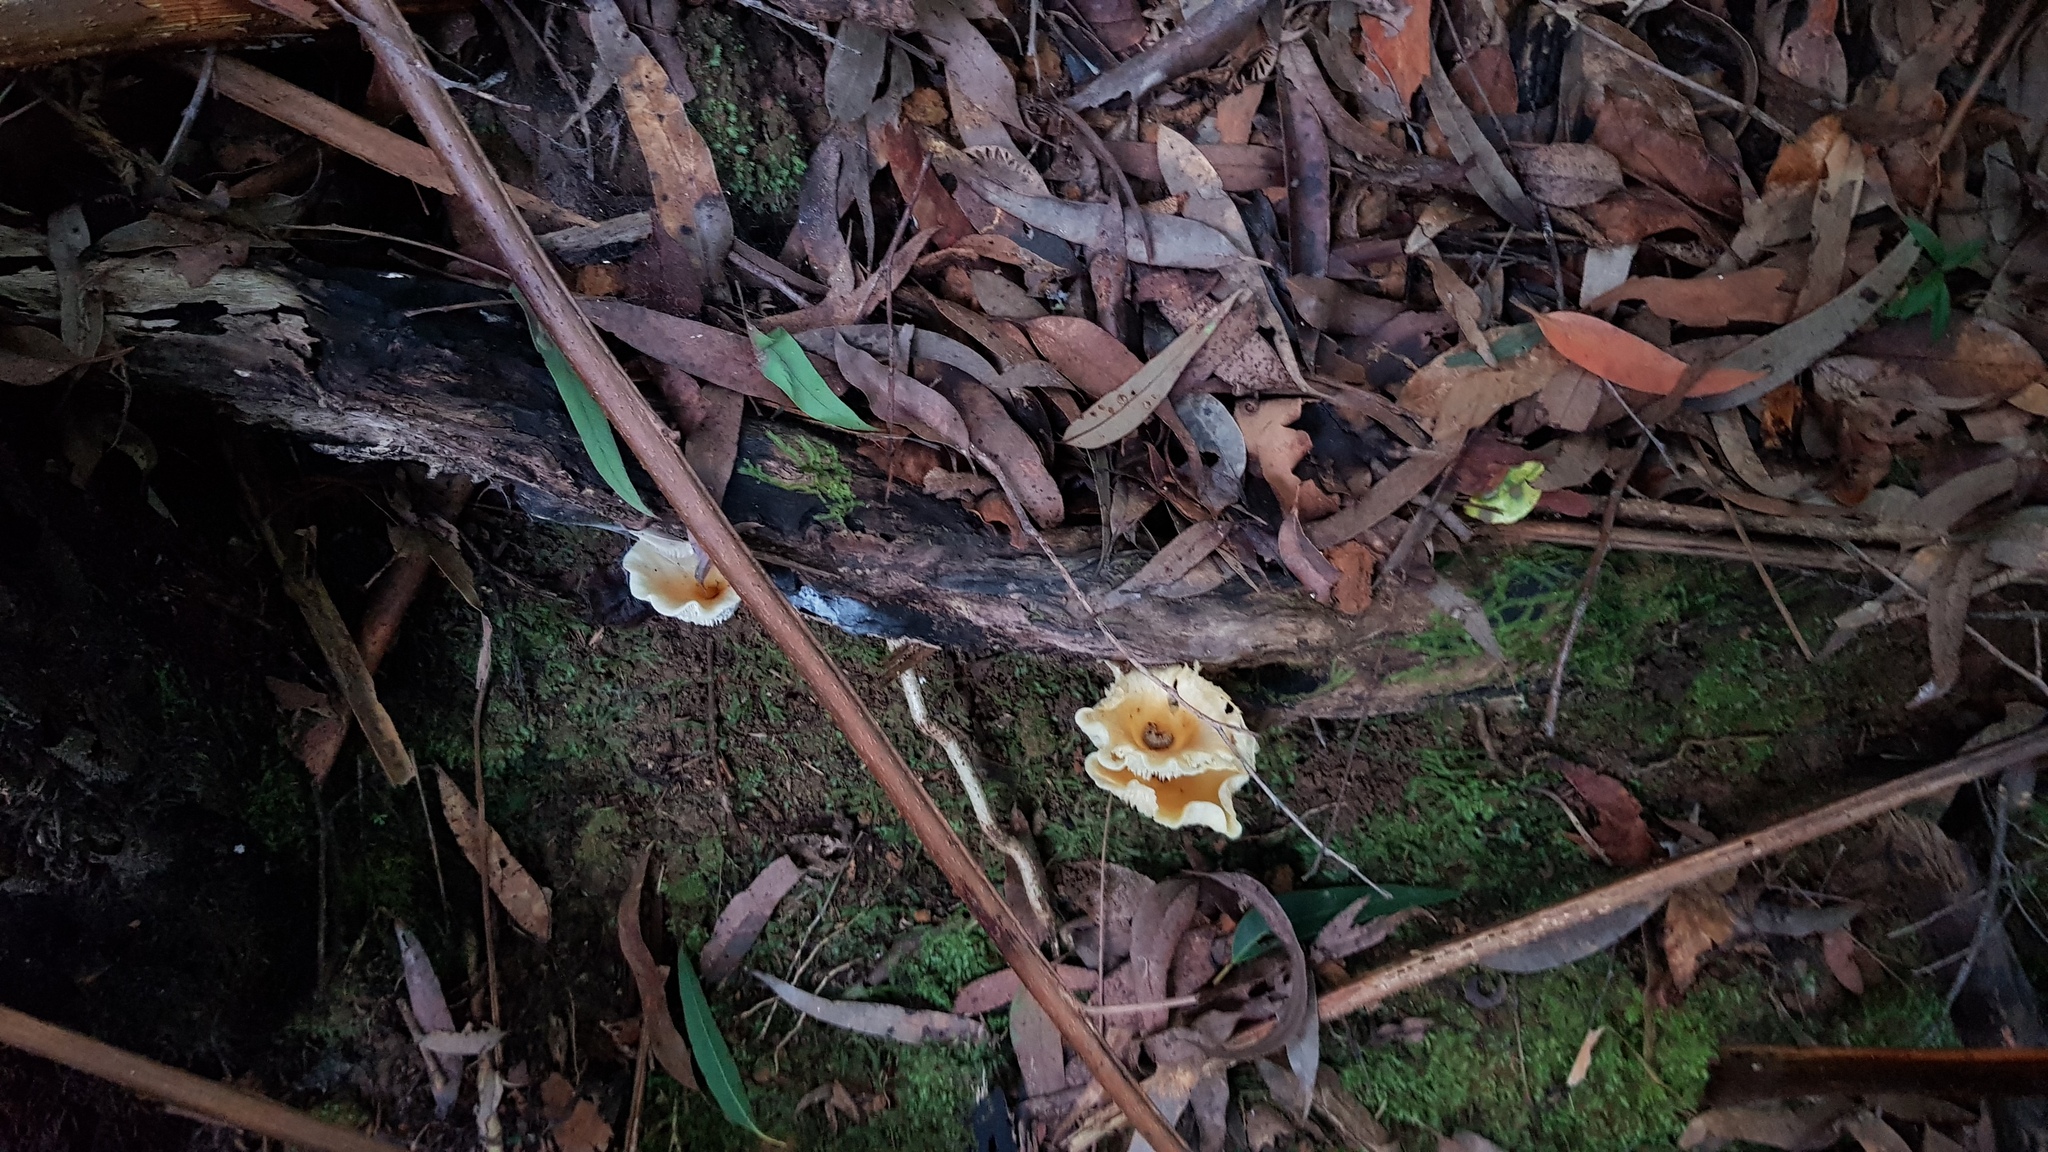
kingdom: Fungi
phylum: Basidiomycota
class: Agaricomycetes
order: Agaricales
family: Omphalotaceae
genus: Omphalotus
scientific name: Omphalotus nidiformis
